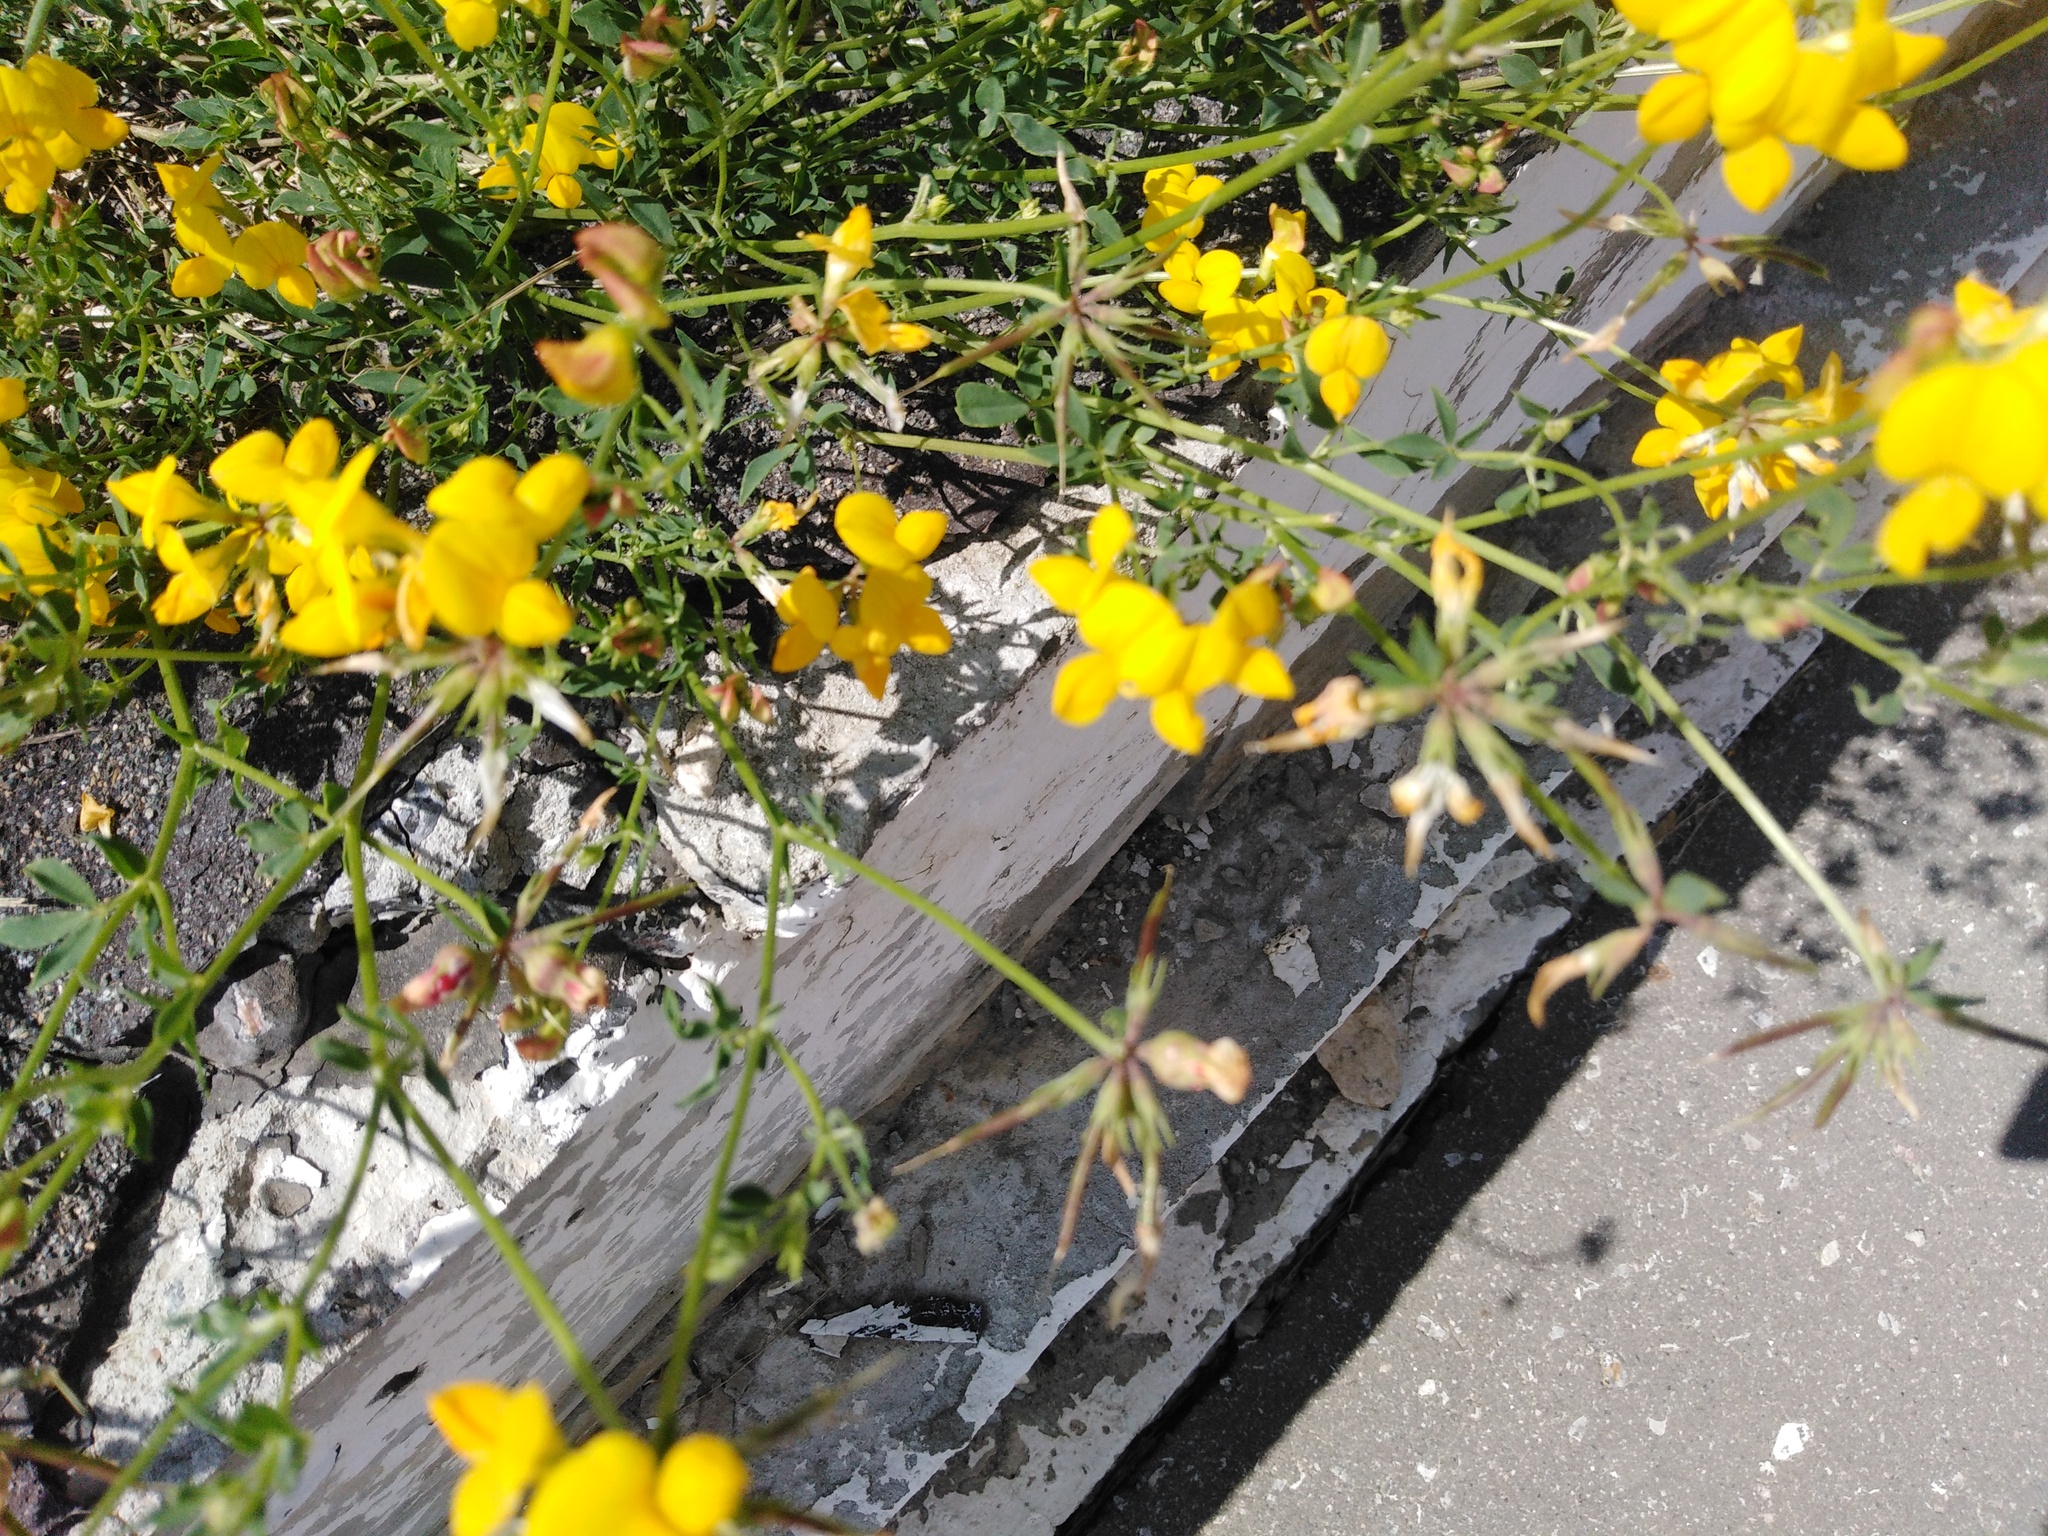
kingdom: Plantae
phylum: Tracheophyta
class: Magnoliopsida
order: Fabales
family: Fabaceae
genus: Lotus
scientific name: Lotus corniculatus
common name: Common bird's-foot-trefoil
